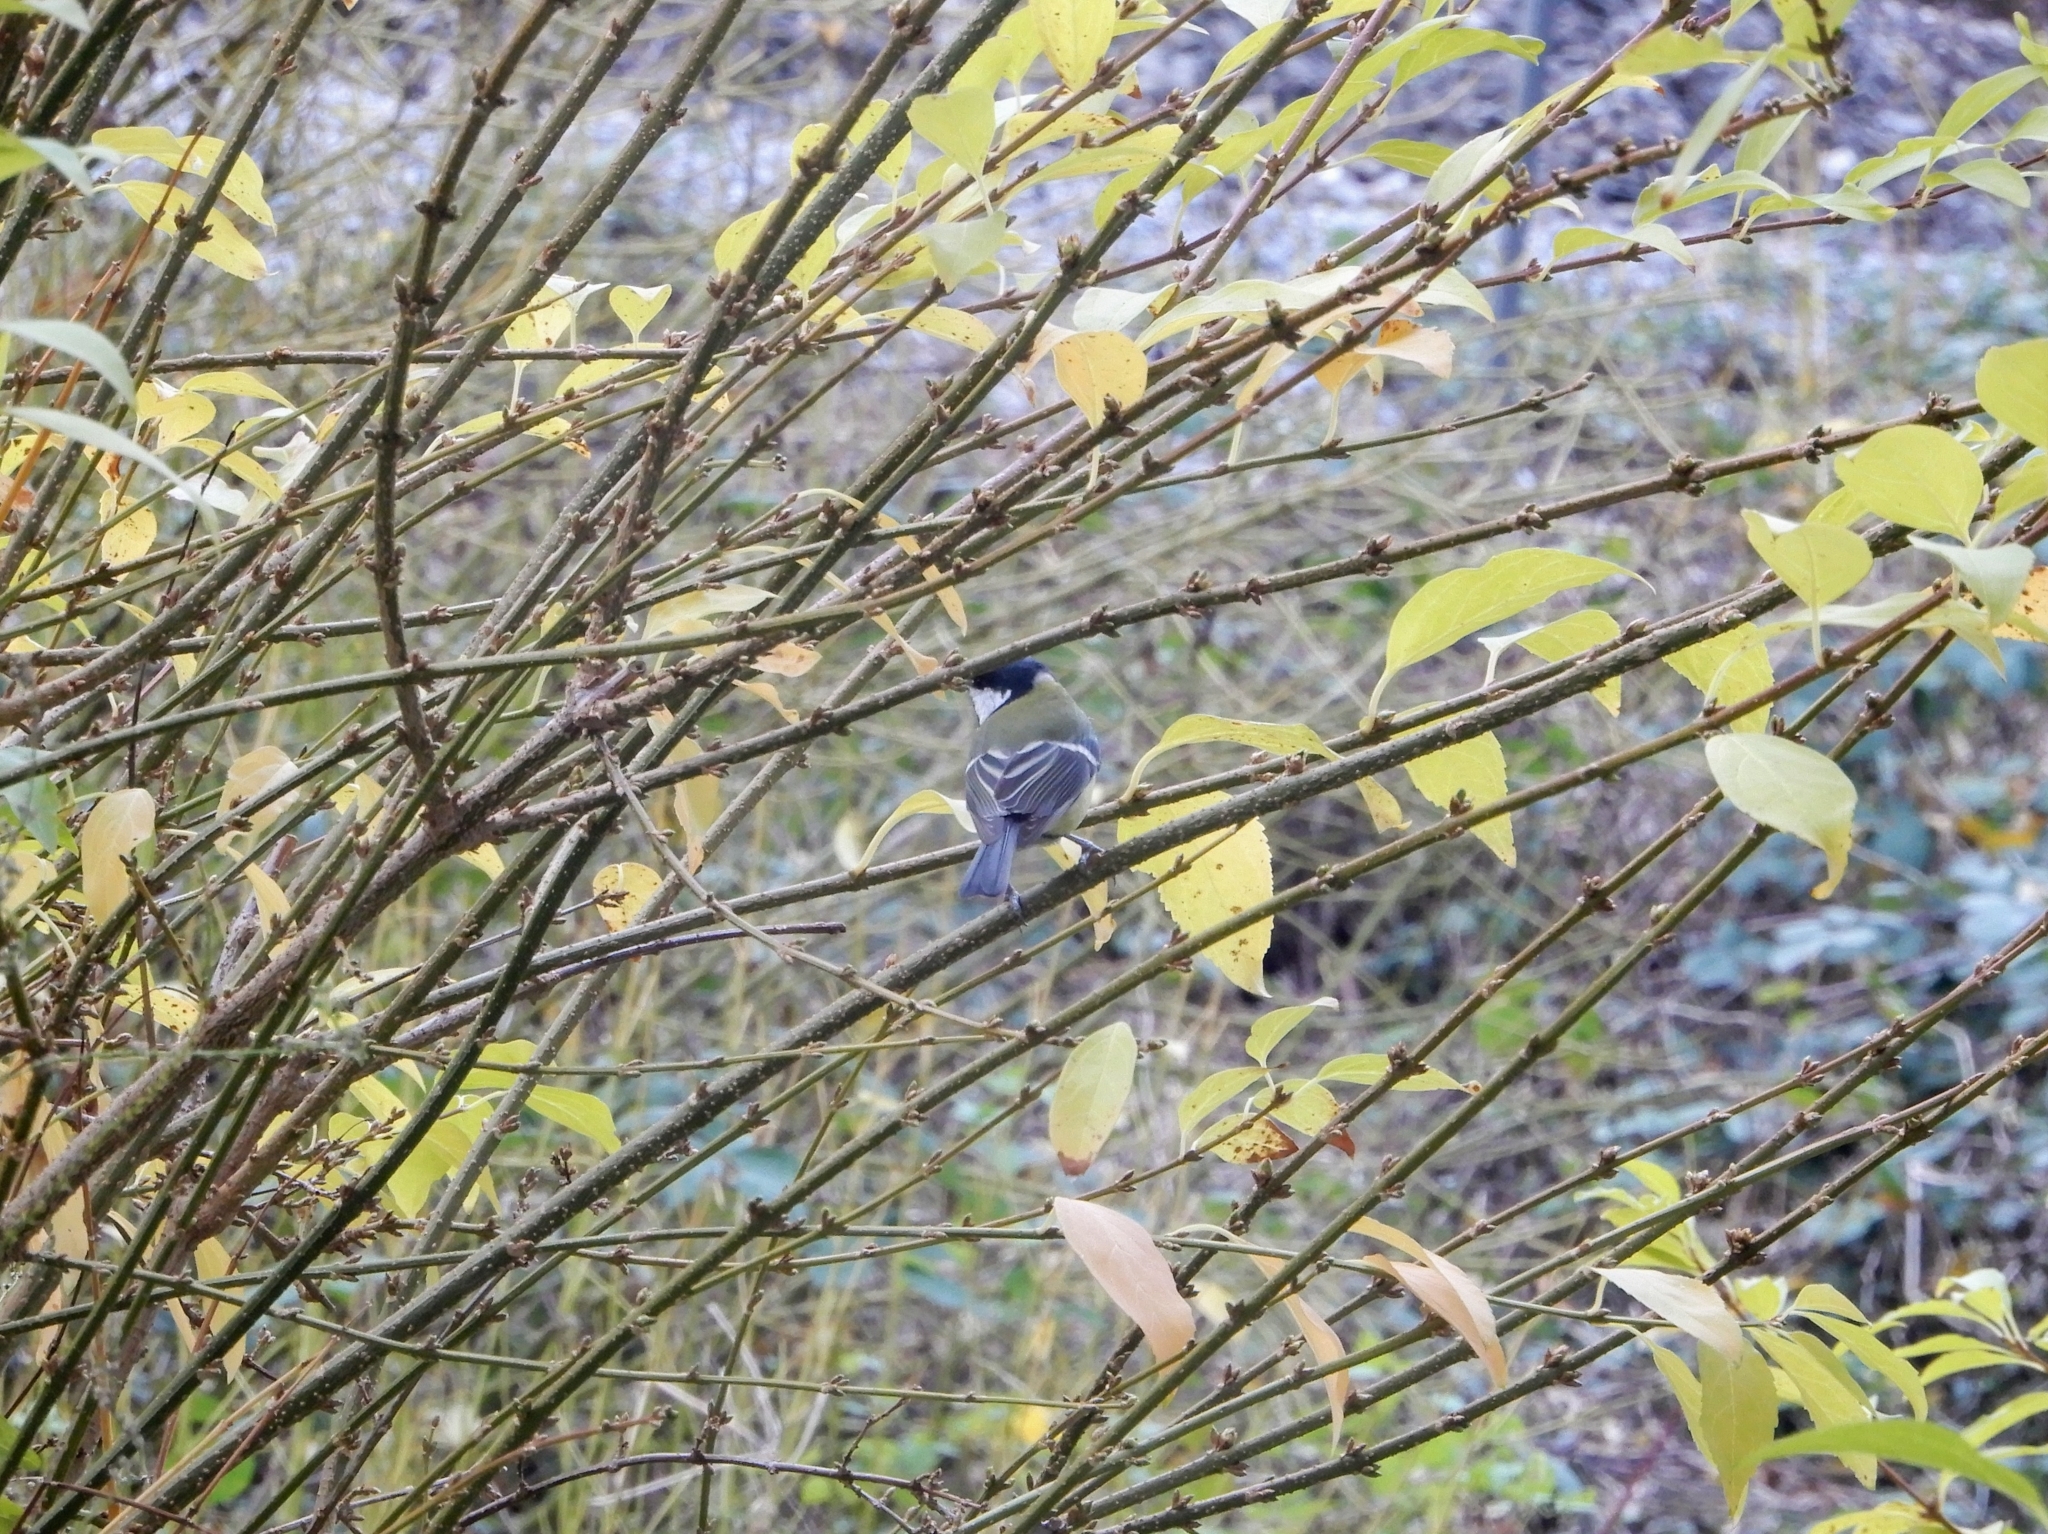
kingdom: Animalia
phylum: Chordata
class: Aves
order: Passeriformes
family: Paridae
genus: Parus
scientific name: Parus major
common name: Great tit
